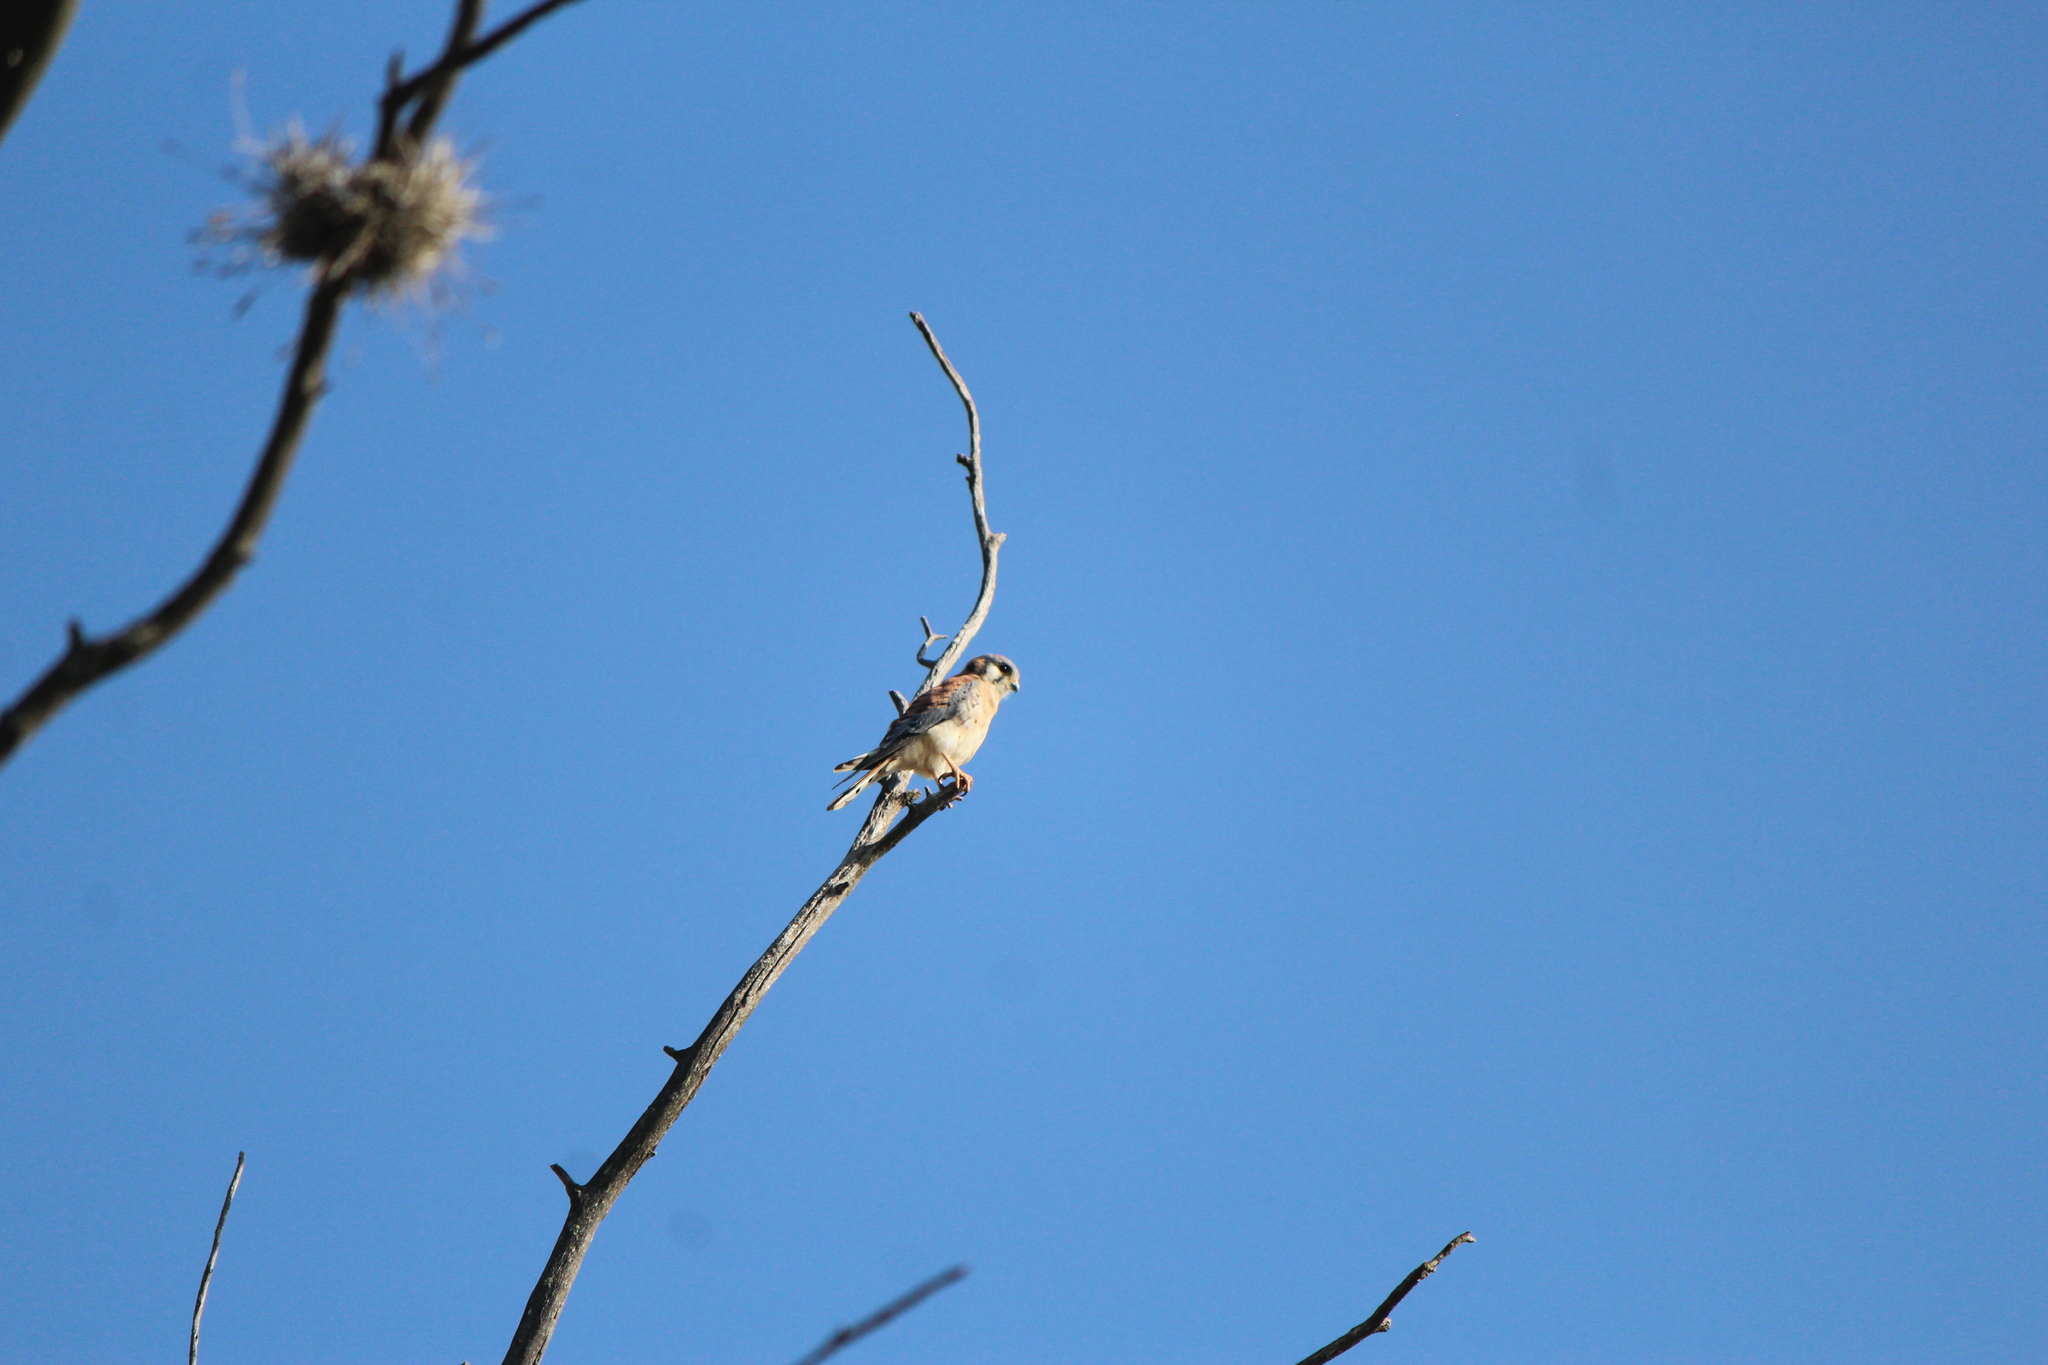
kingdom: Animalia
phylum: Chordata
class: Aves
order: Falconiformes
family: Falconidae
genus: Falco
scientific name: Falco sparverius
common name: American kestrel
